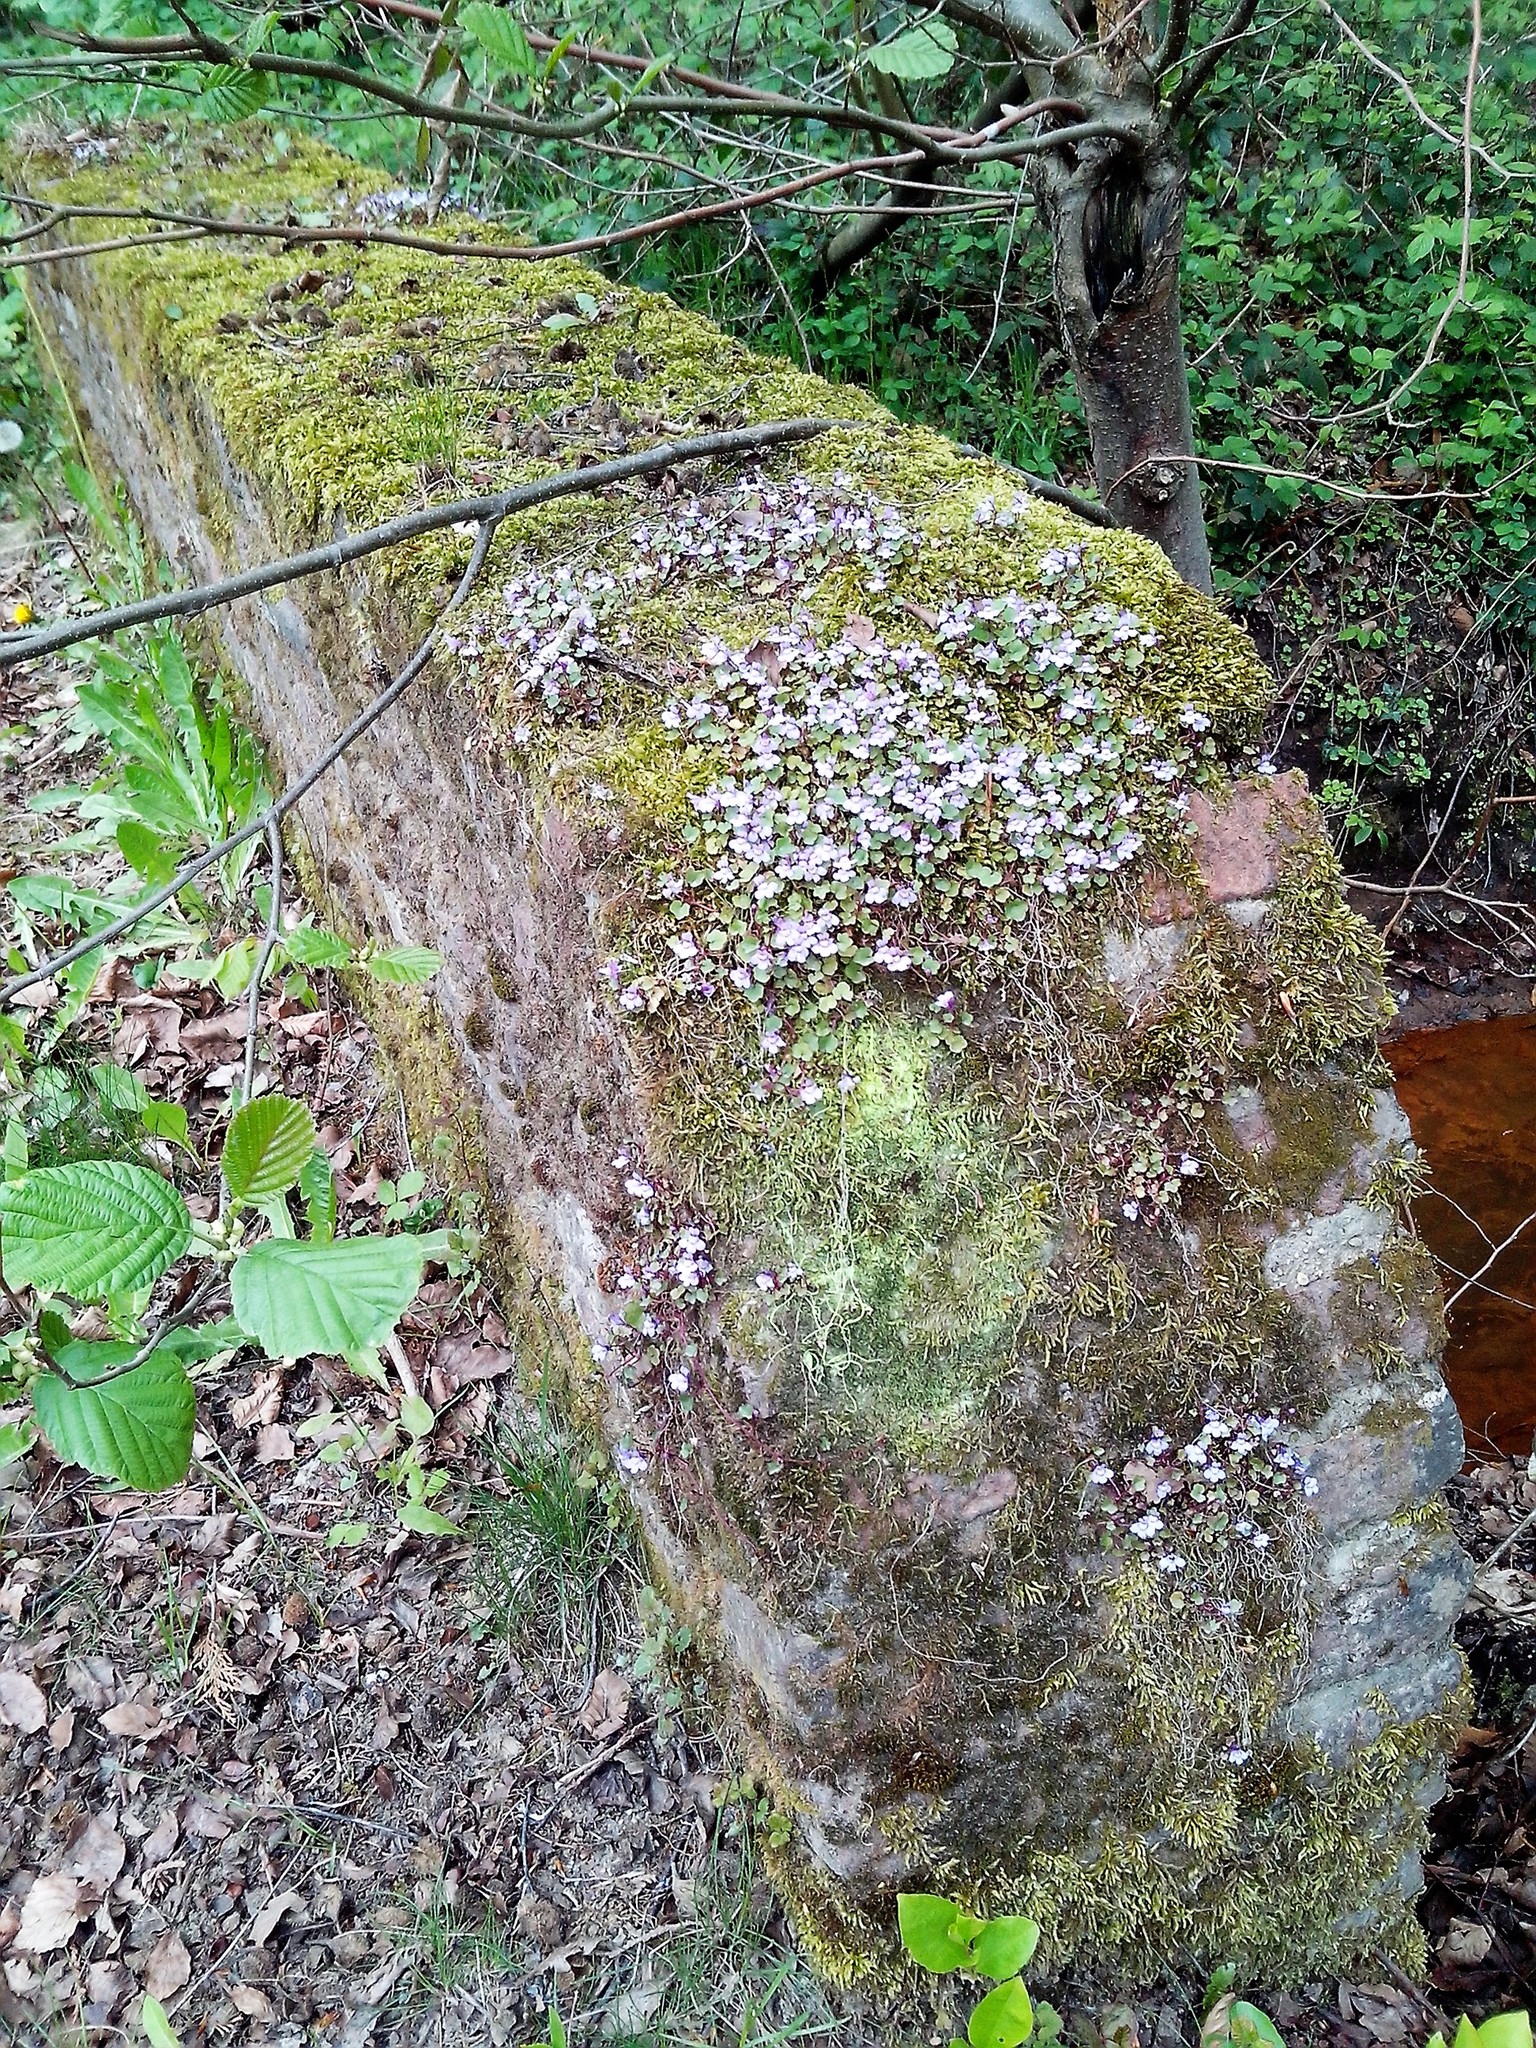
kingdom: Plantae
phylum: Tracheophyta
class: Magnoliopsida
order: Lamiales
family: Plantaginaceae
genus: Cymbalaria
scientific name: Cymbalaria muralis
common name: Ivy-leaved toadflax
